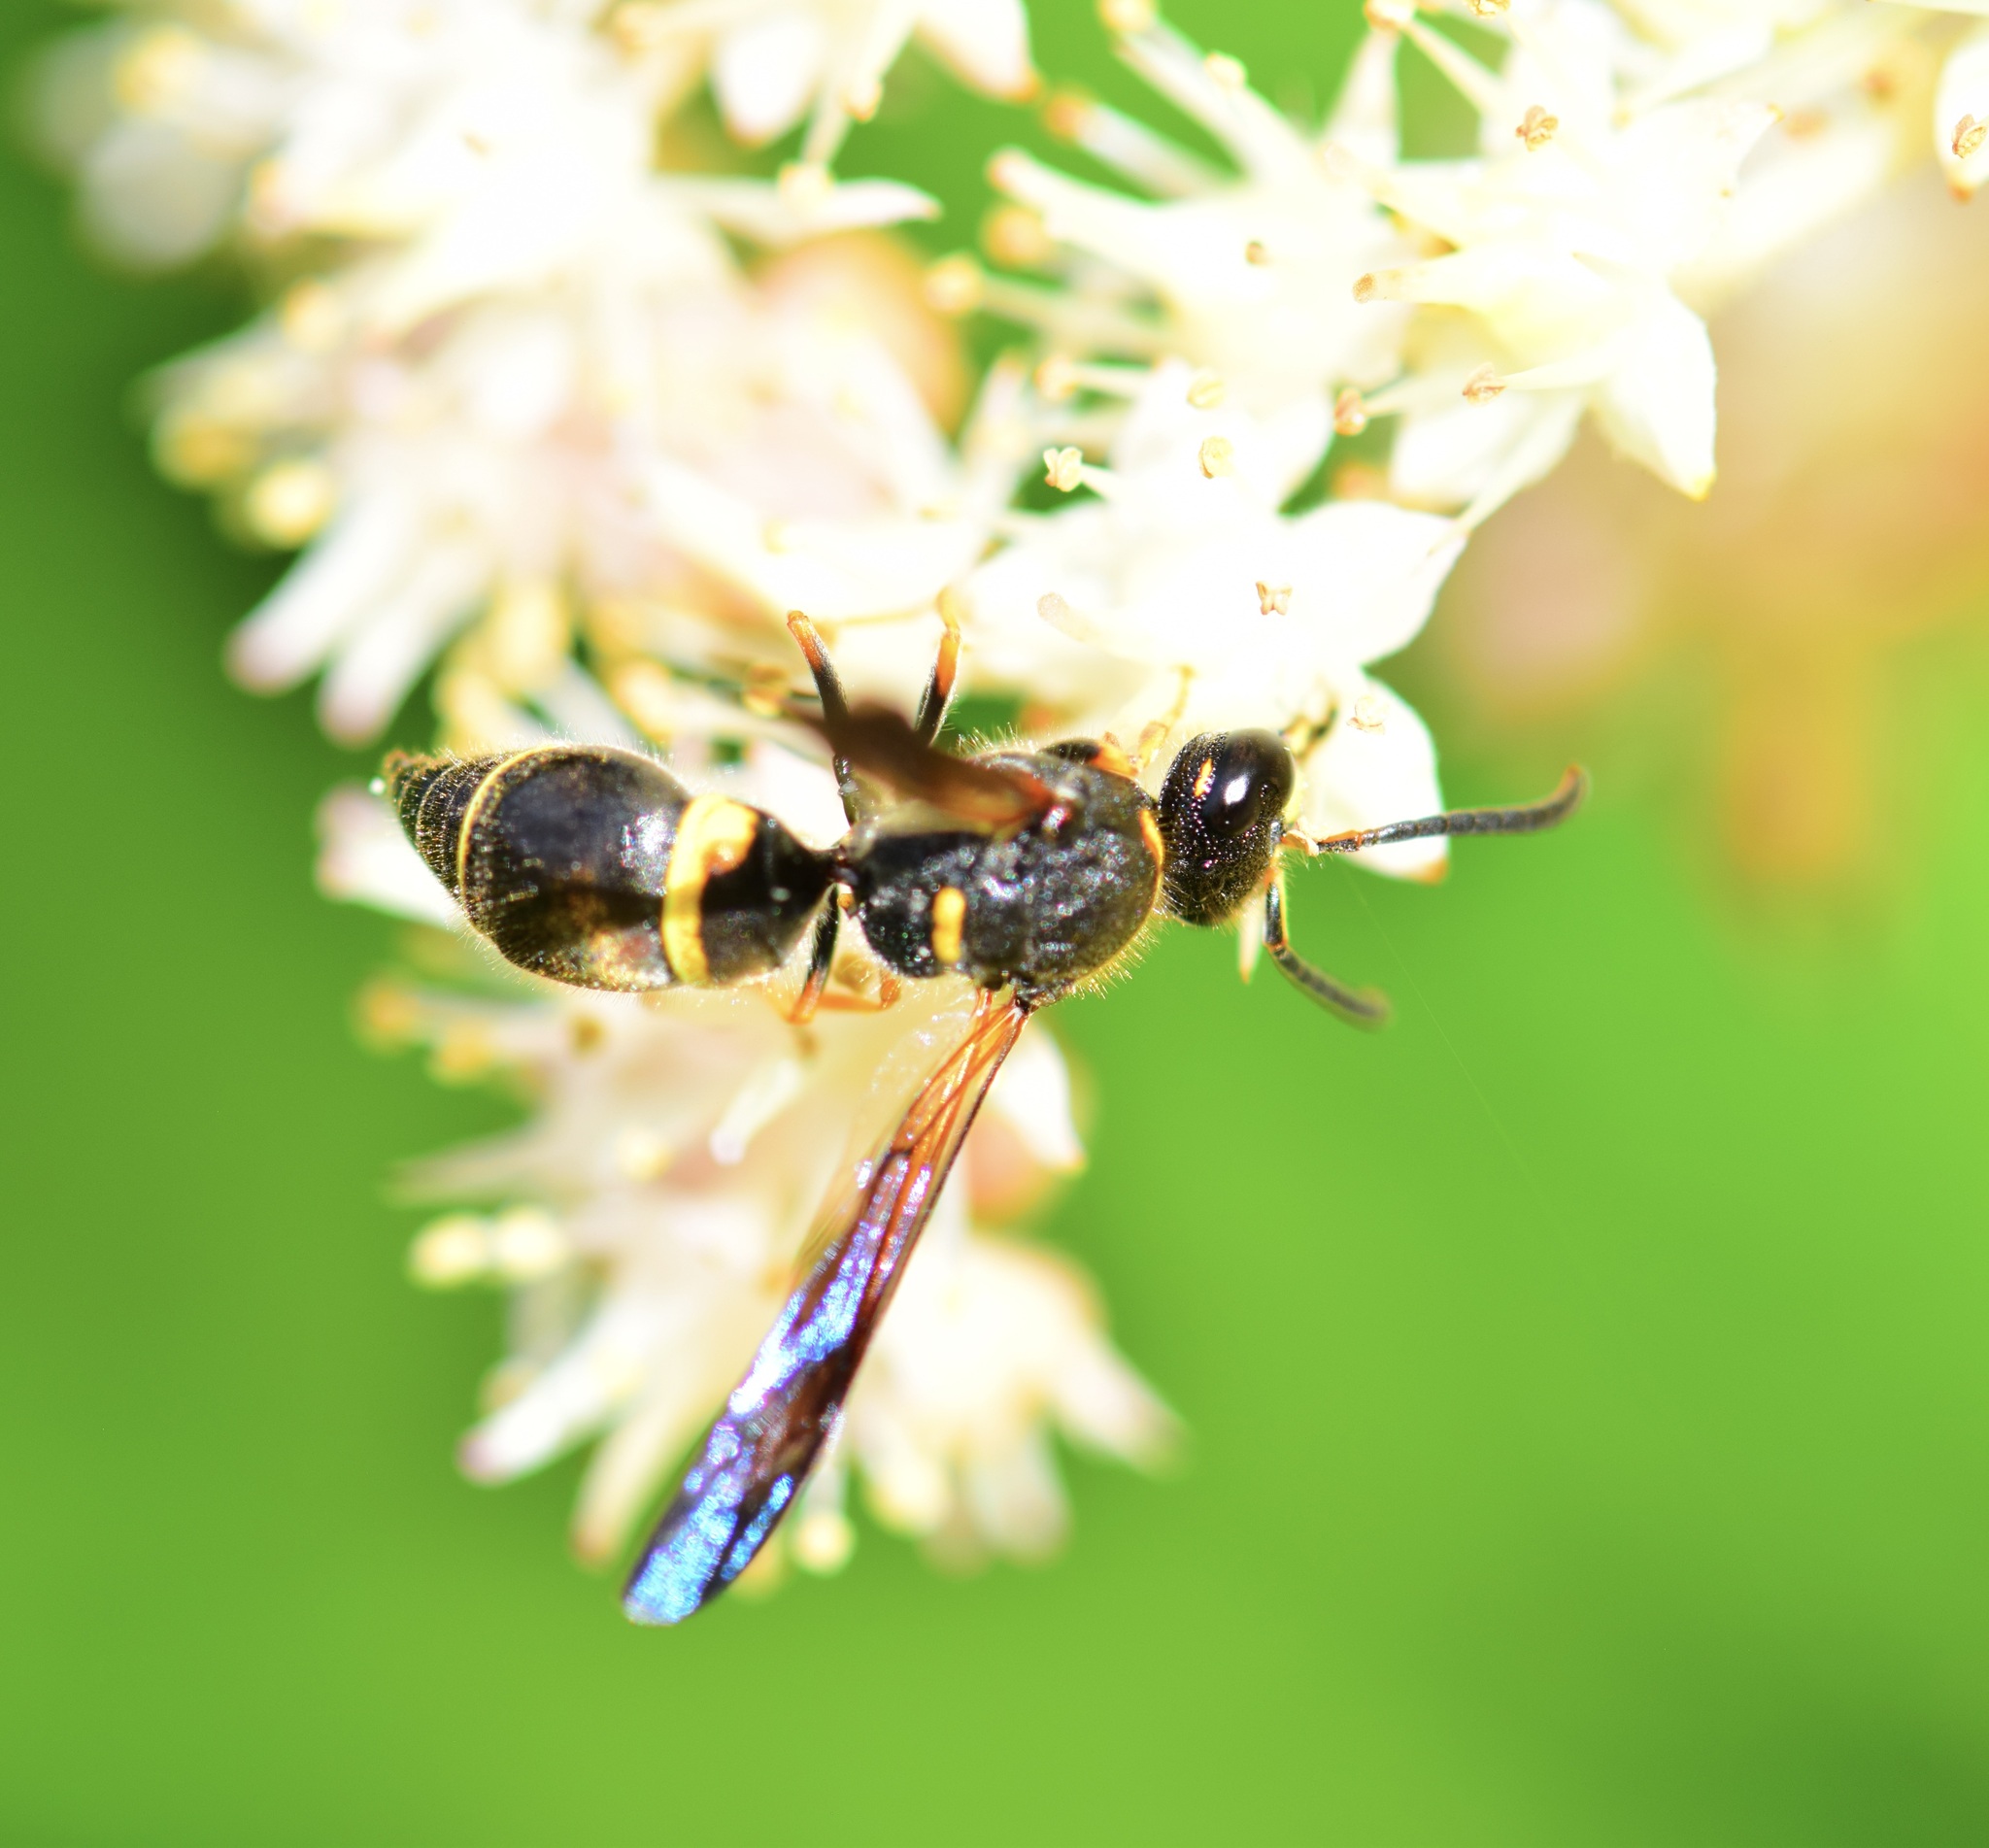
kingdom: Animalia
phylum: Arthropoda
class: Insecta
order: Hymenoptera
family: Vespidae
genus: Ancistrocerus
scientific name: Ancistrocerus unifasciatus
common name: One-banded mason wasp
